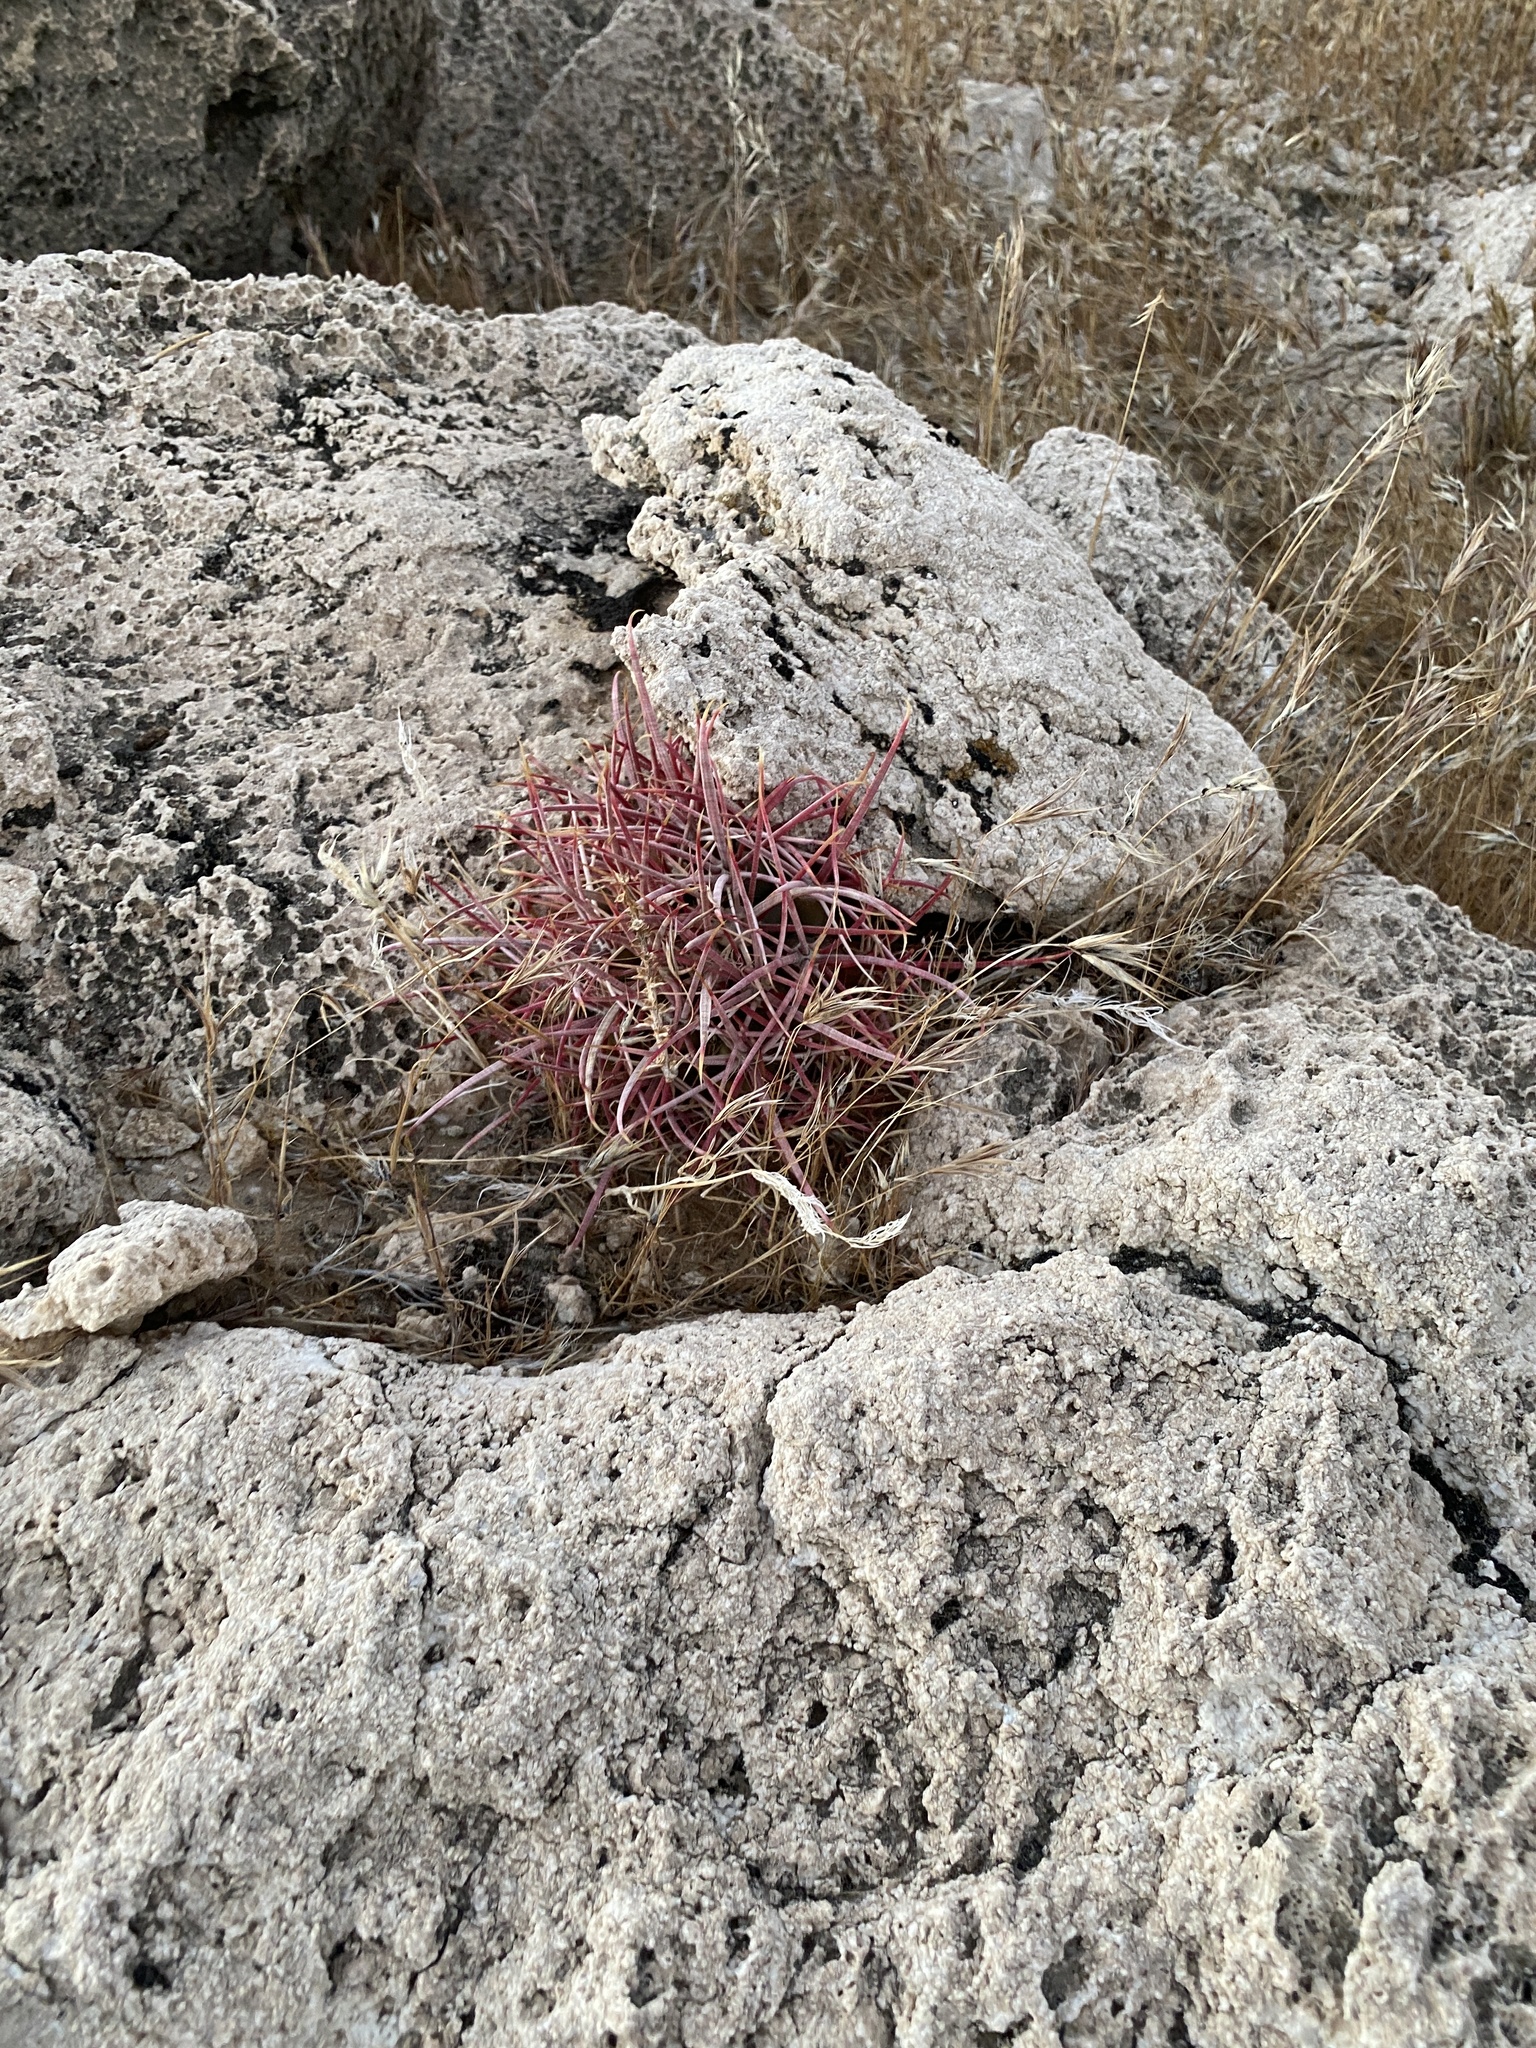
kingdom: Plantae
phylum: Tracheophyta
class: Magnoliopsida
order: Caryophyllales
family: Cactaceae
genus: Ferocactus
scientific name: Ferocactus cylindraceus
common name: California barrel cactus
